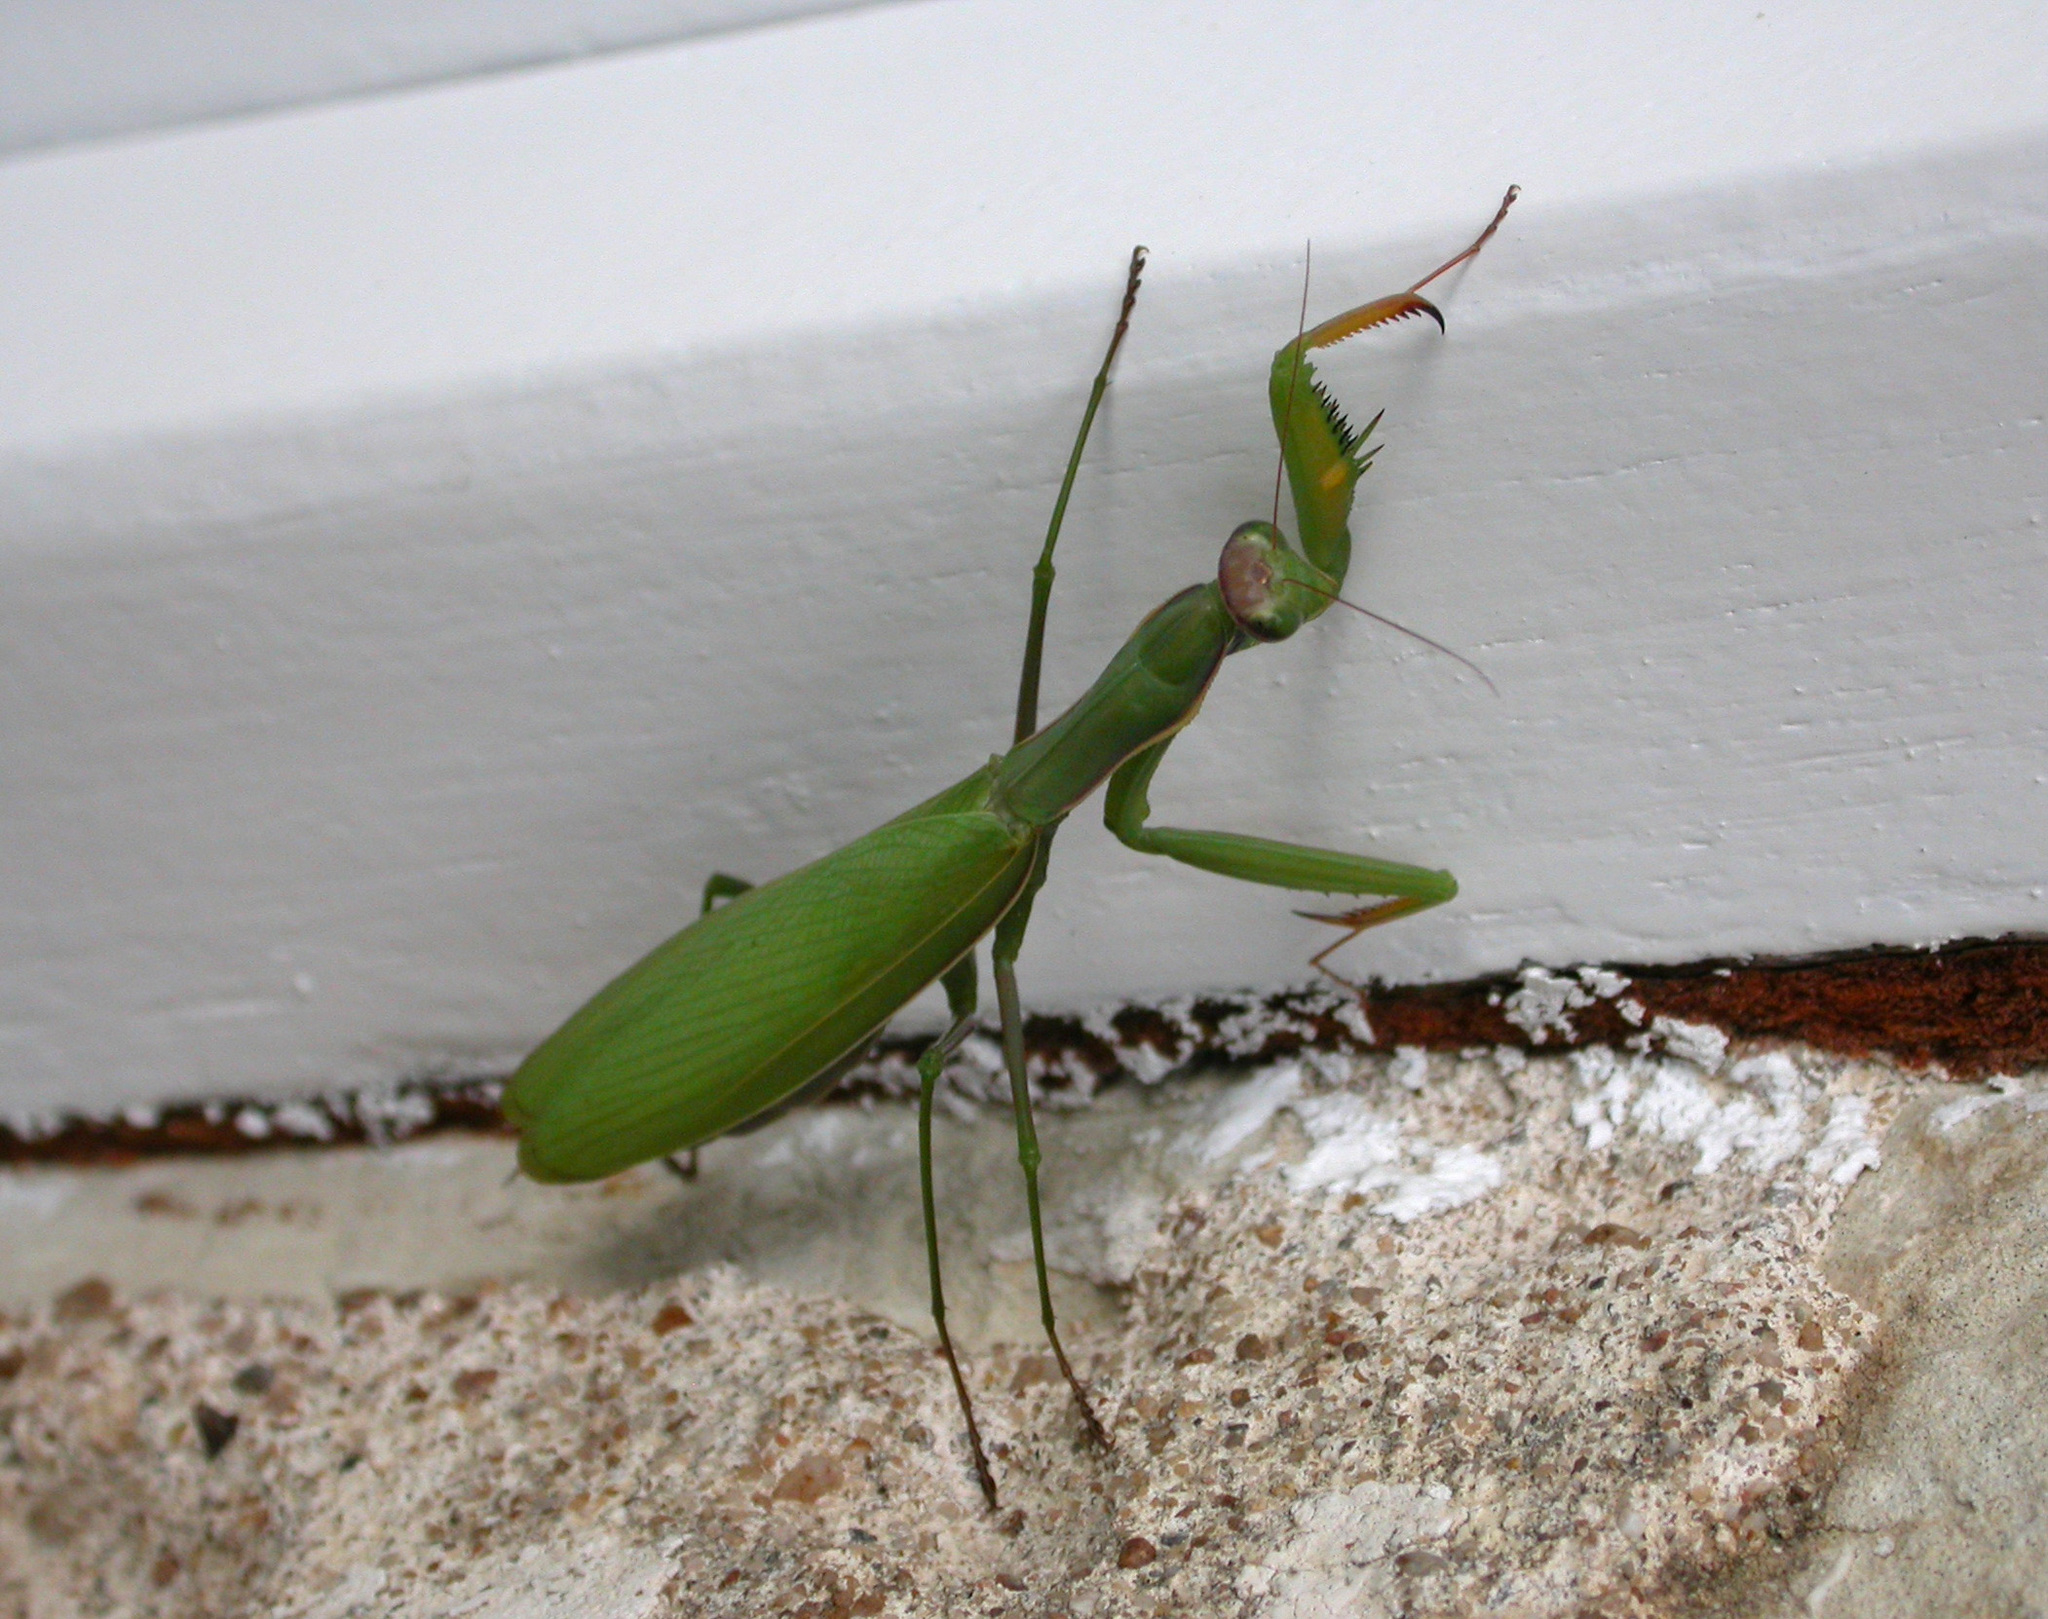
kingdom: Animalia
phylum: Arthropoda
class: Insecta
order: Mantodea
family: Mantidae
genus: Mantis
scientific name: Mantis religiosa
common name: Praying mantis
